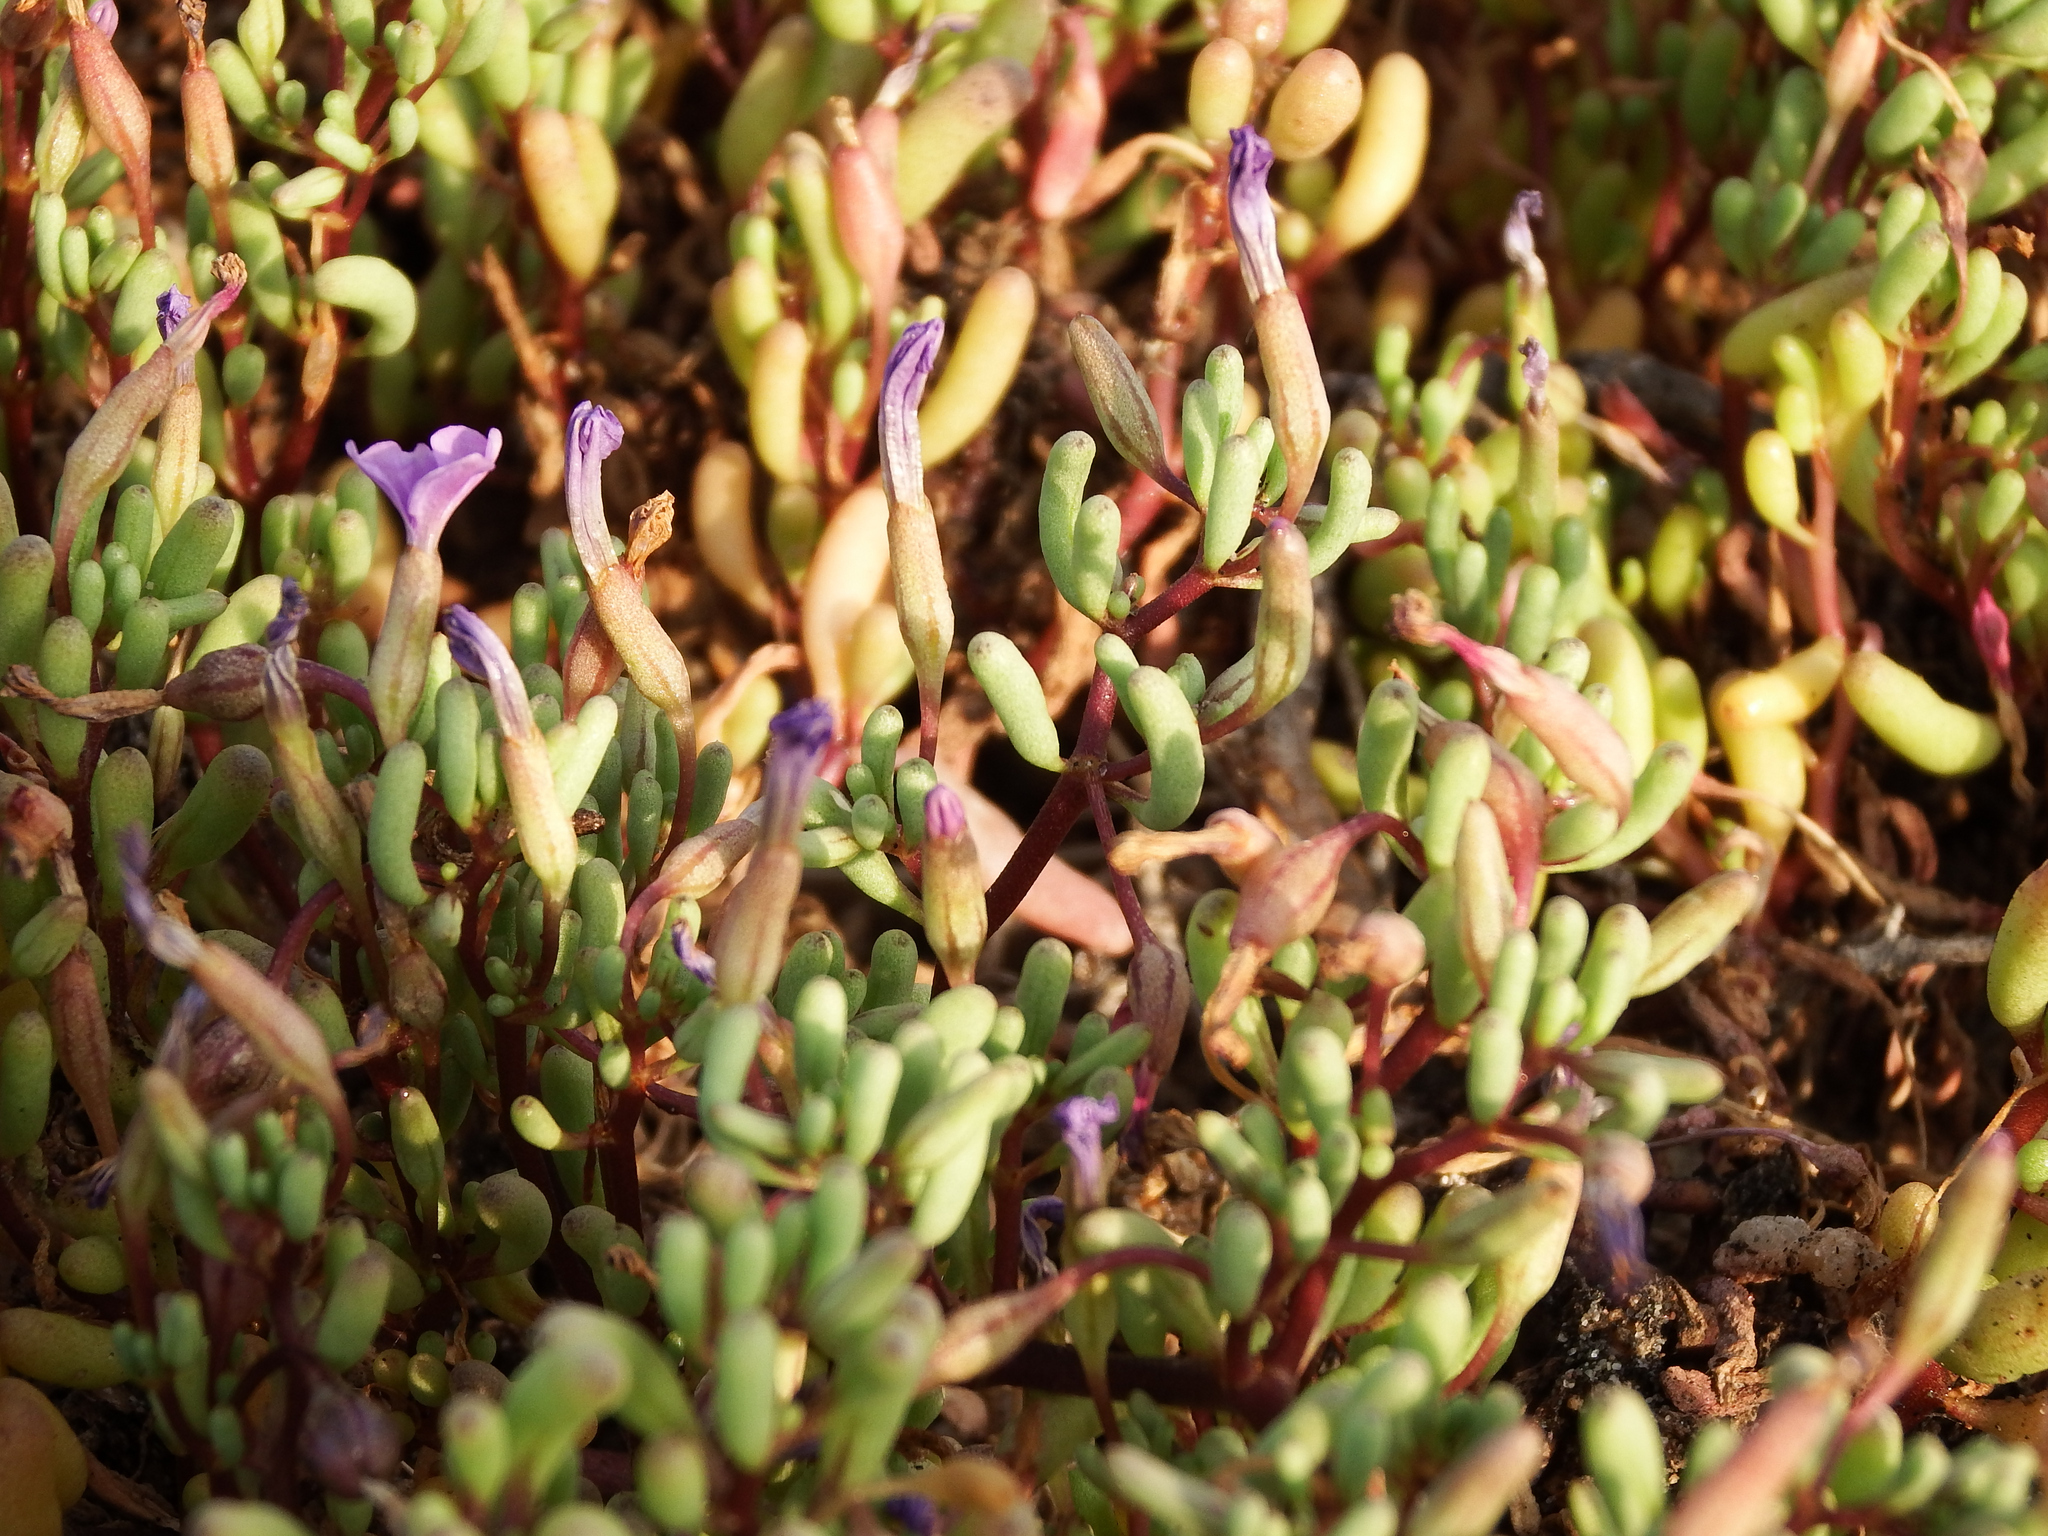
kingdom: Plantae
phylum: Tracheophyta
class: Magnoliopsida
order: Solanales
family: Solanaceae
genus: Nolana
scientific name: Nolana tarapacana
